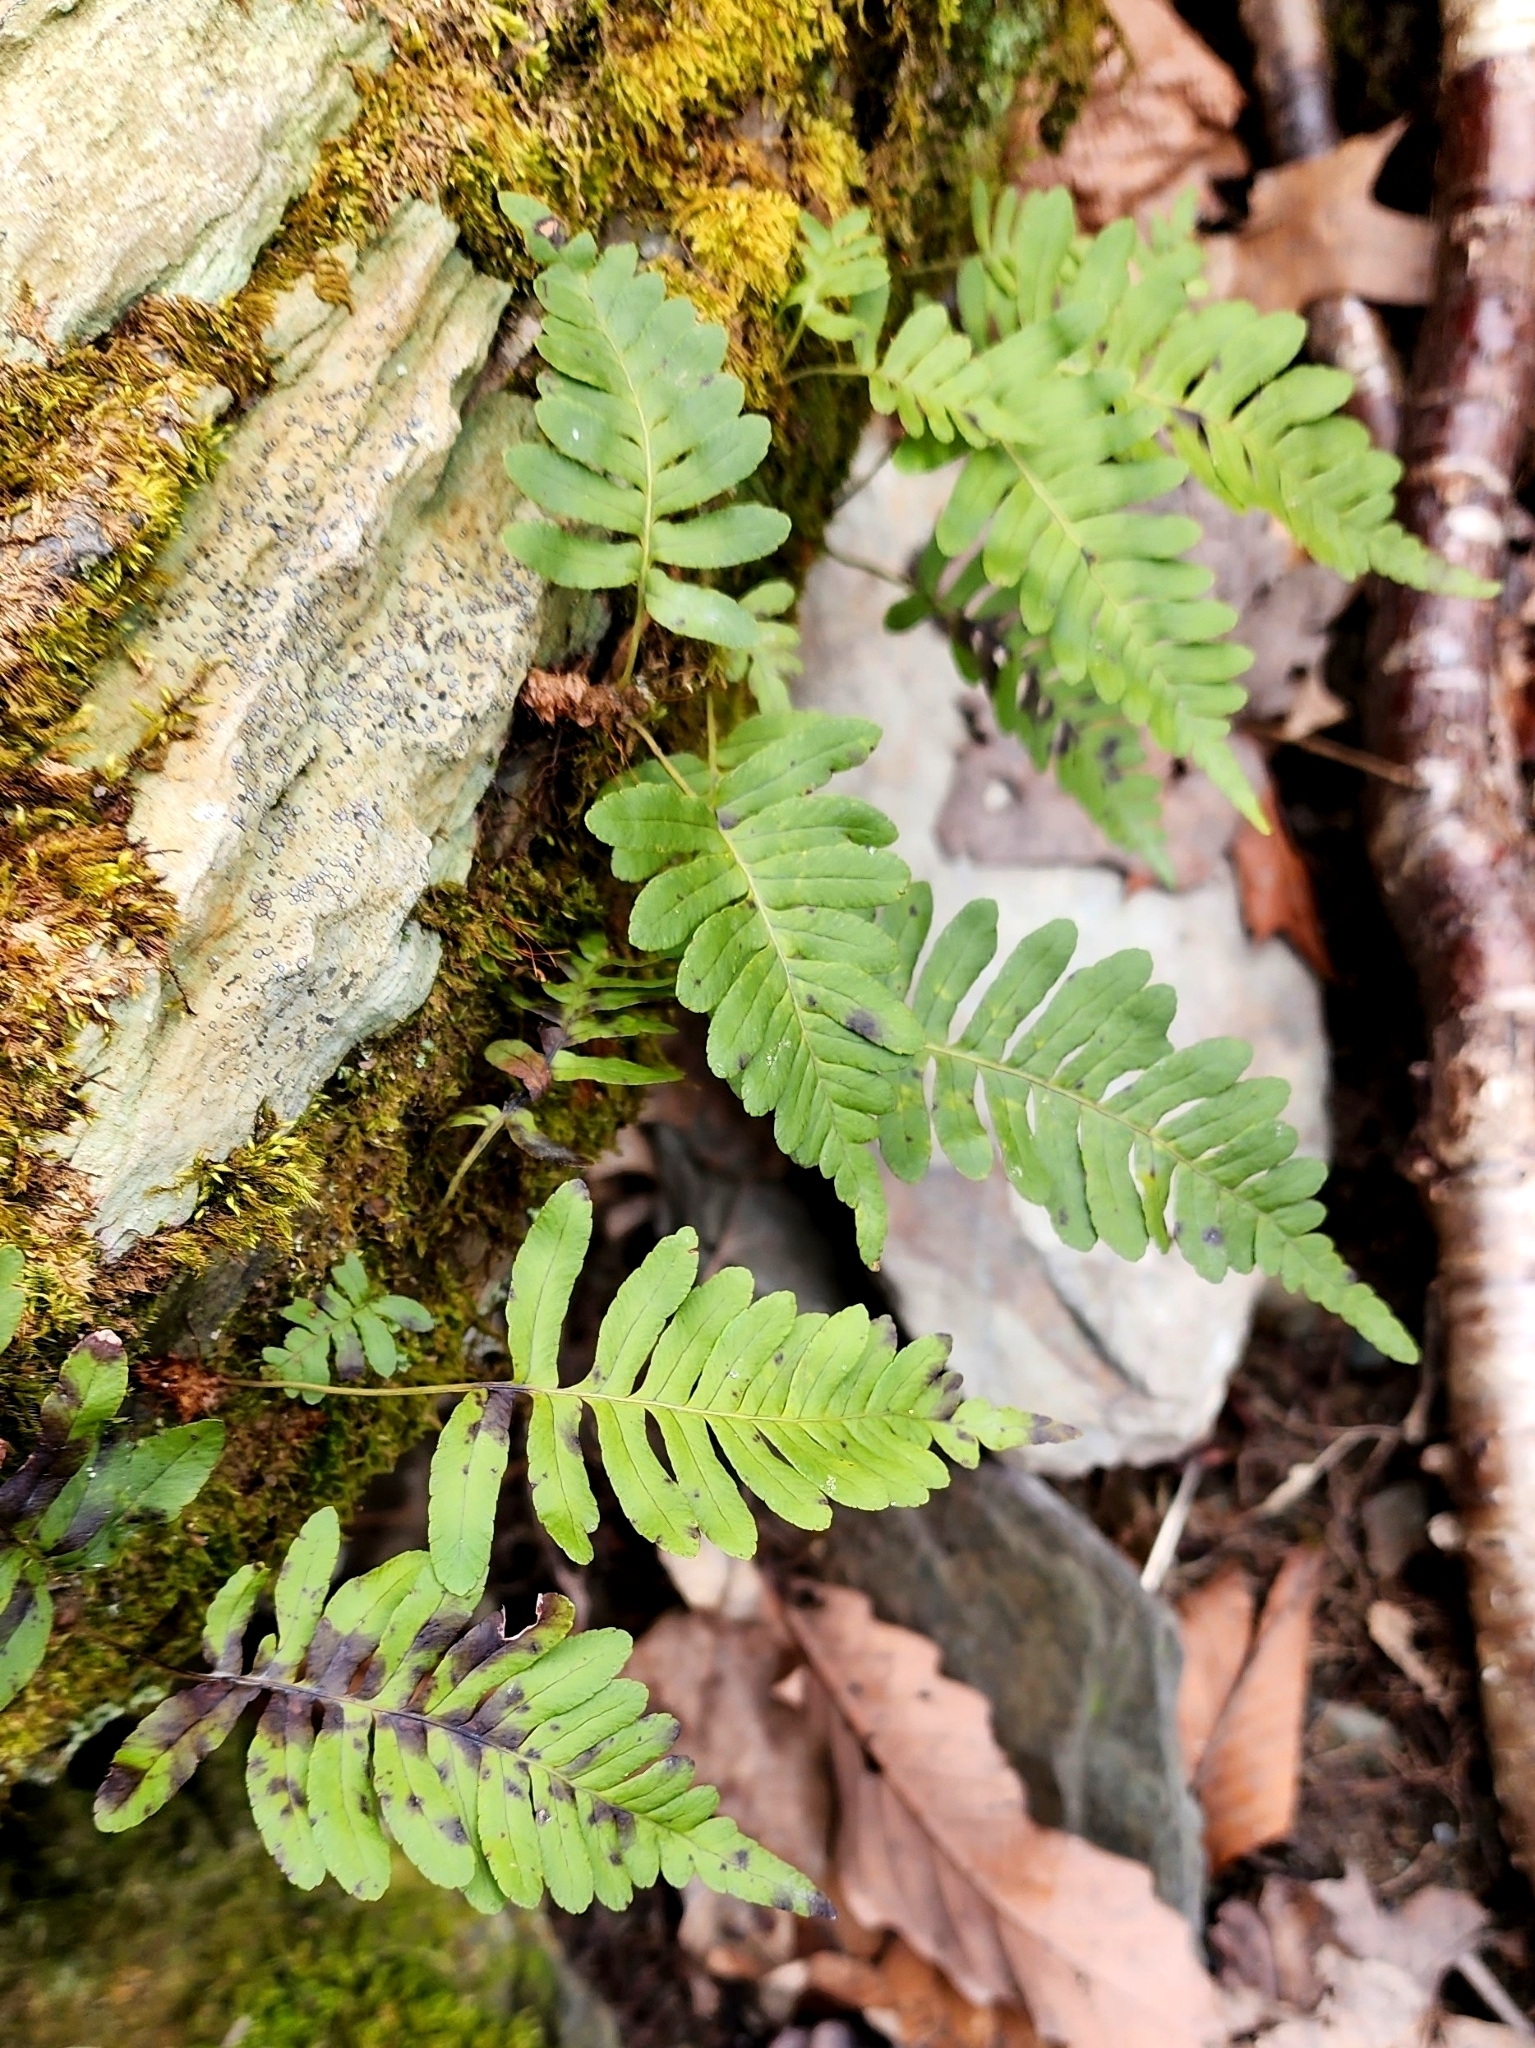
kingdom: Plantae
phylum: Tracheophyta
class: Polypodiopsida
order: Polypodiales
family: Polypodiaceae
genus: Polypodium
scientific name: Polypodium virginianum
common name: American wall fern
